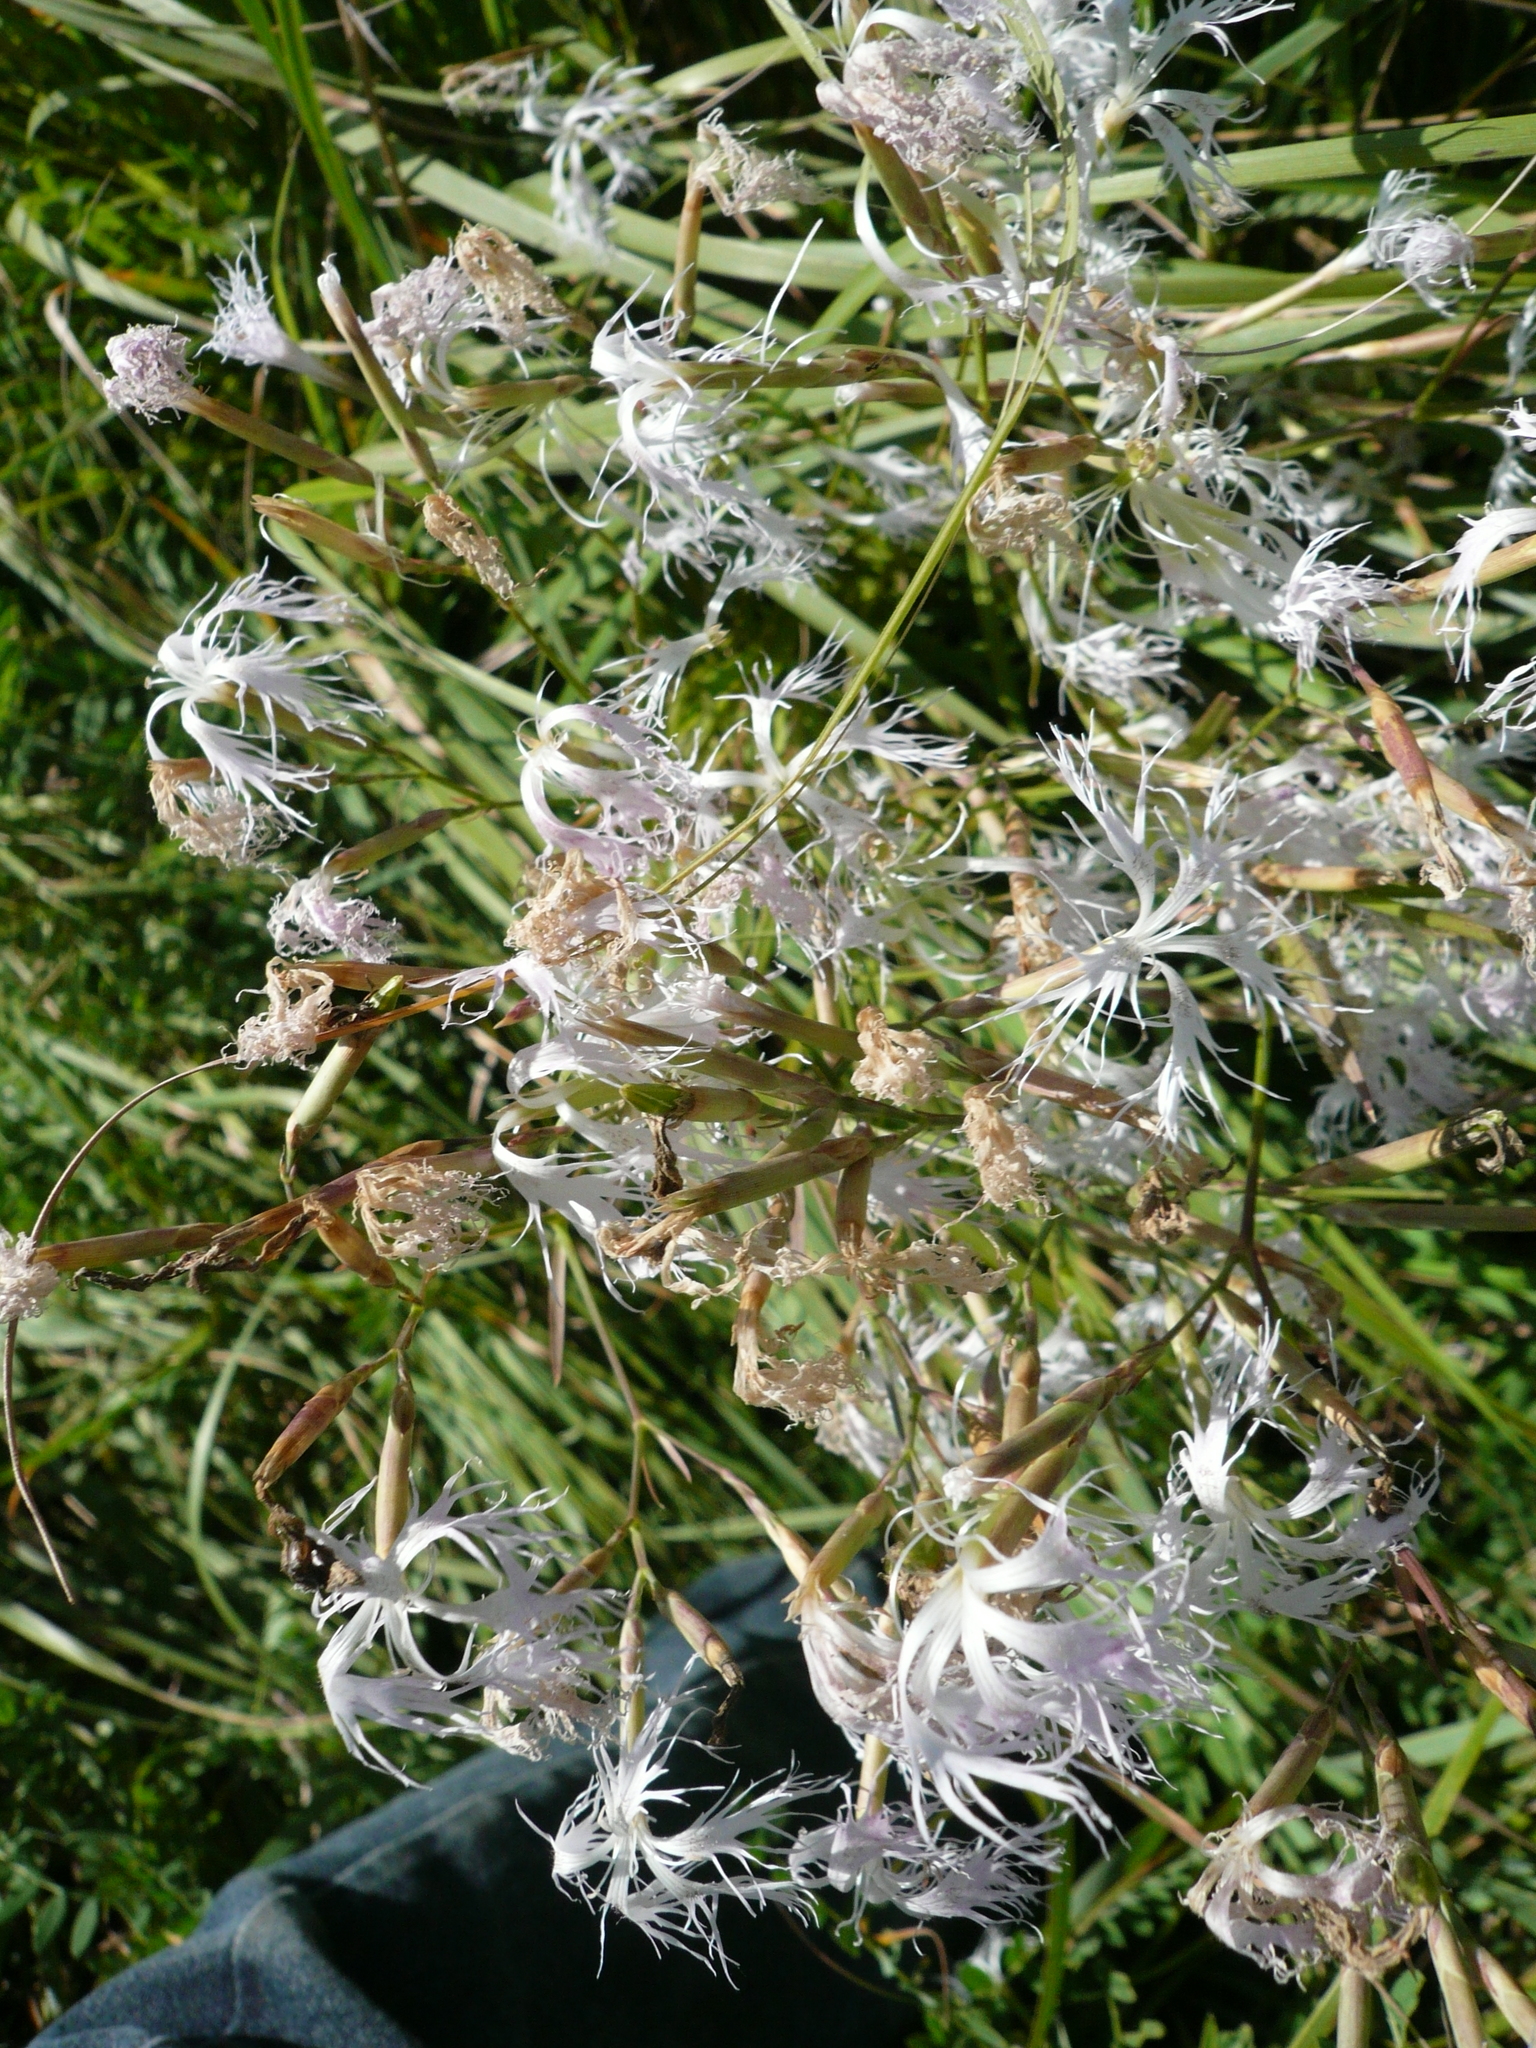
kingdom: Plantae
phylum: Tracheophyta
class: Magnoliopsida
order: Caryophyllales
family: Caryophyllaceae
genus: Dianthus
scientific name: Dianthus superbus
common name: Fringed pink
